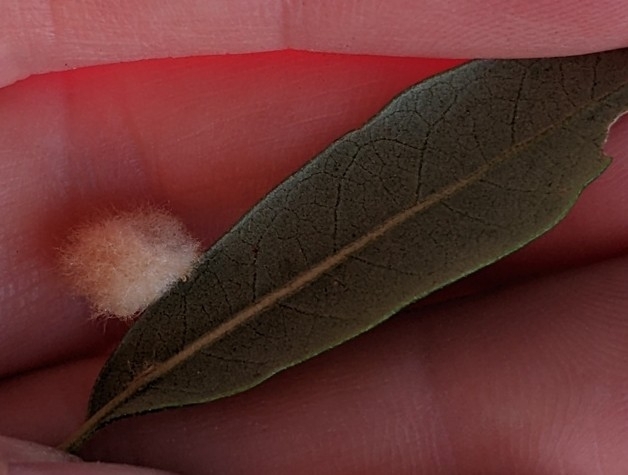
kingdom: Animalia
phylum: Arthropoda
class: Insecta
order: Hymenoptera
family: Cynipidae
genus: Andricus
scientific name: Andricus Druon quercuslanigerum
